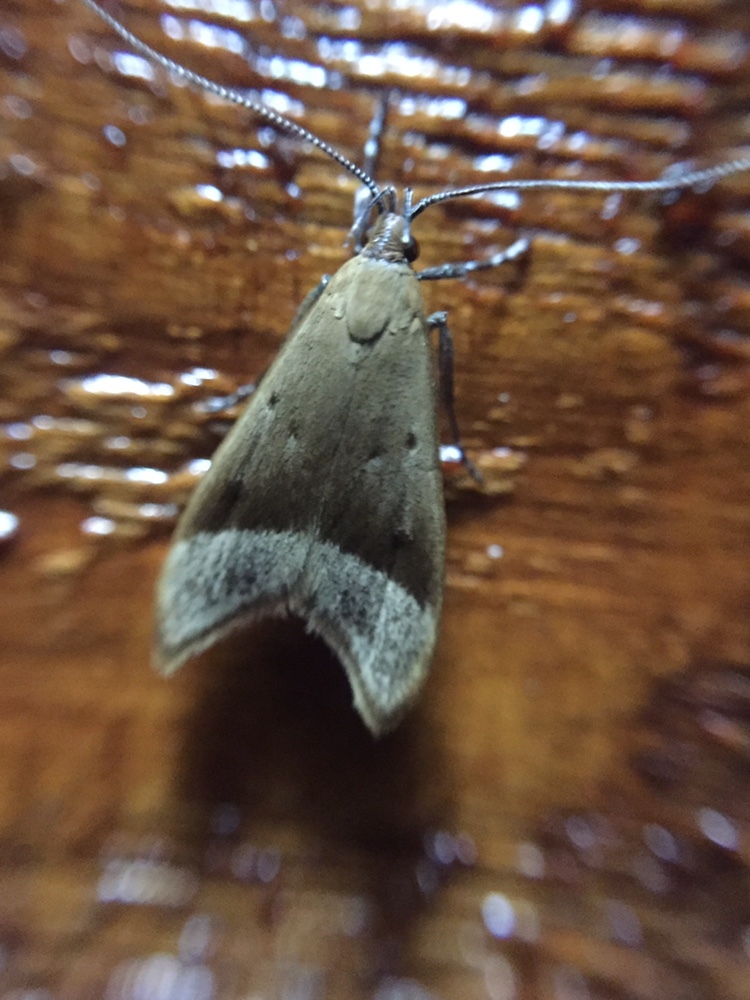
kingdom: Animalia
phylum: Arthropoda
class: Insecta
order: Lepidoptera
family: Oecophoridae
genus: Gymnobathra
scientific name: Gymnobathra hyetodes
